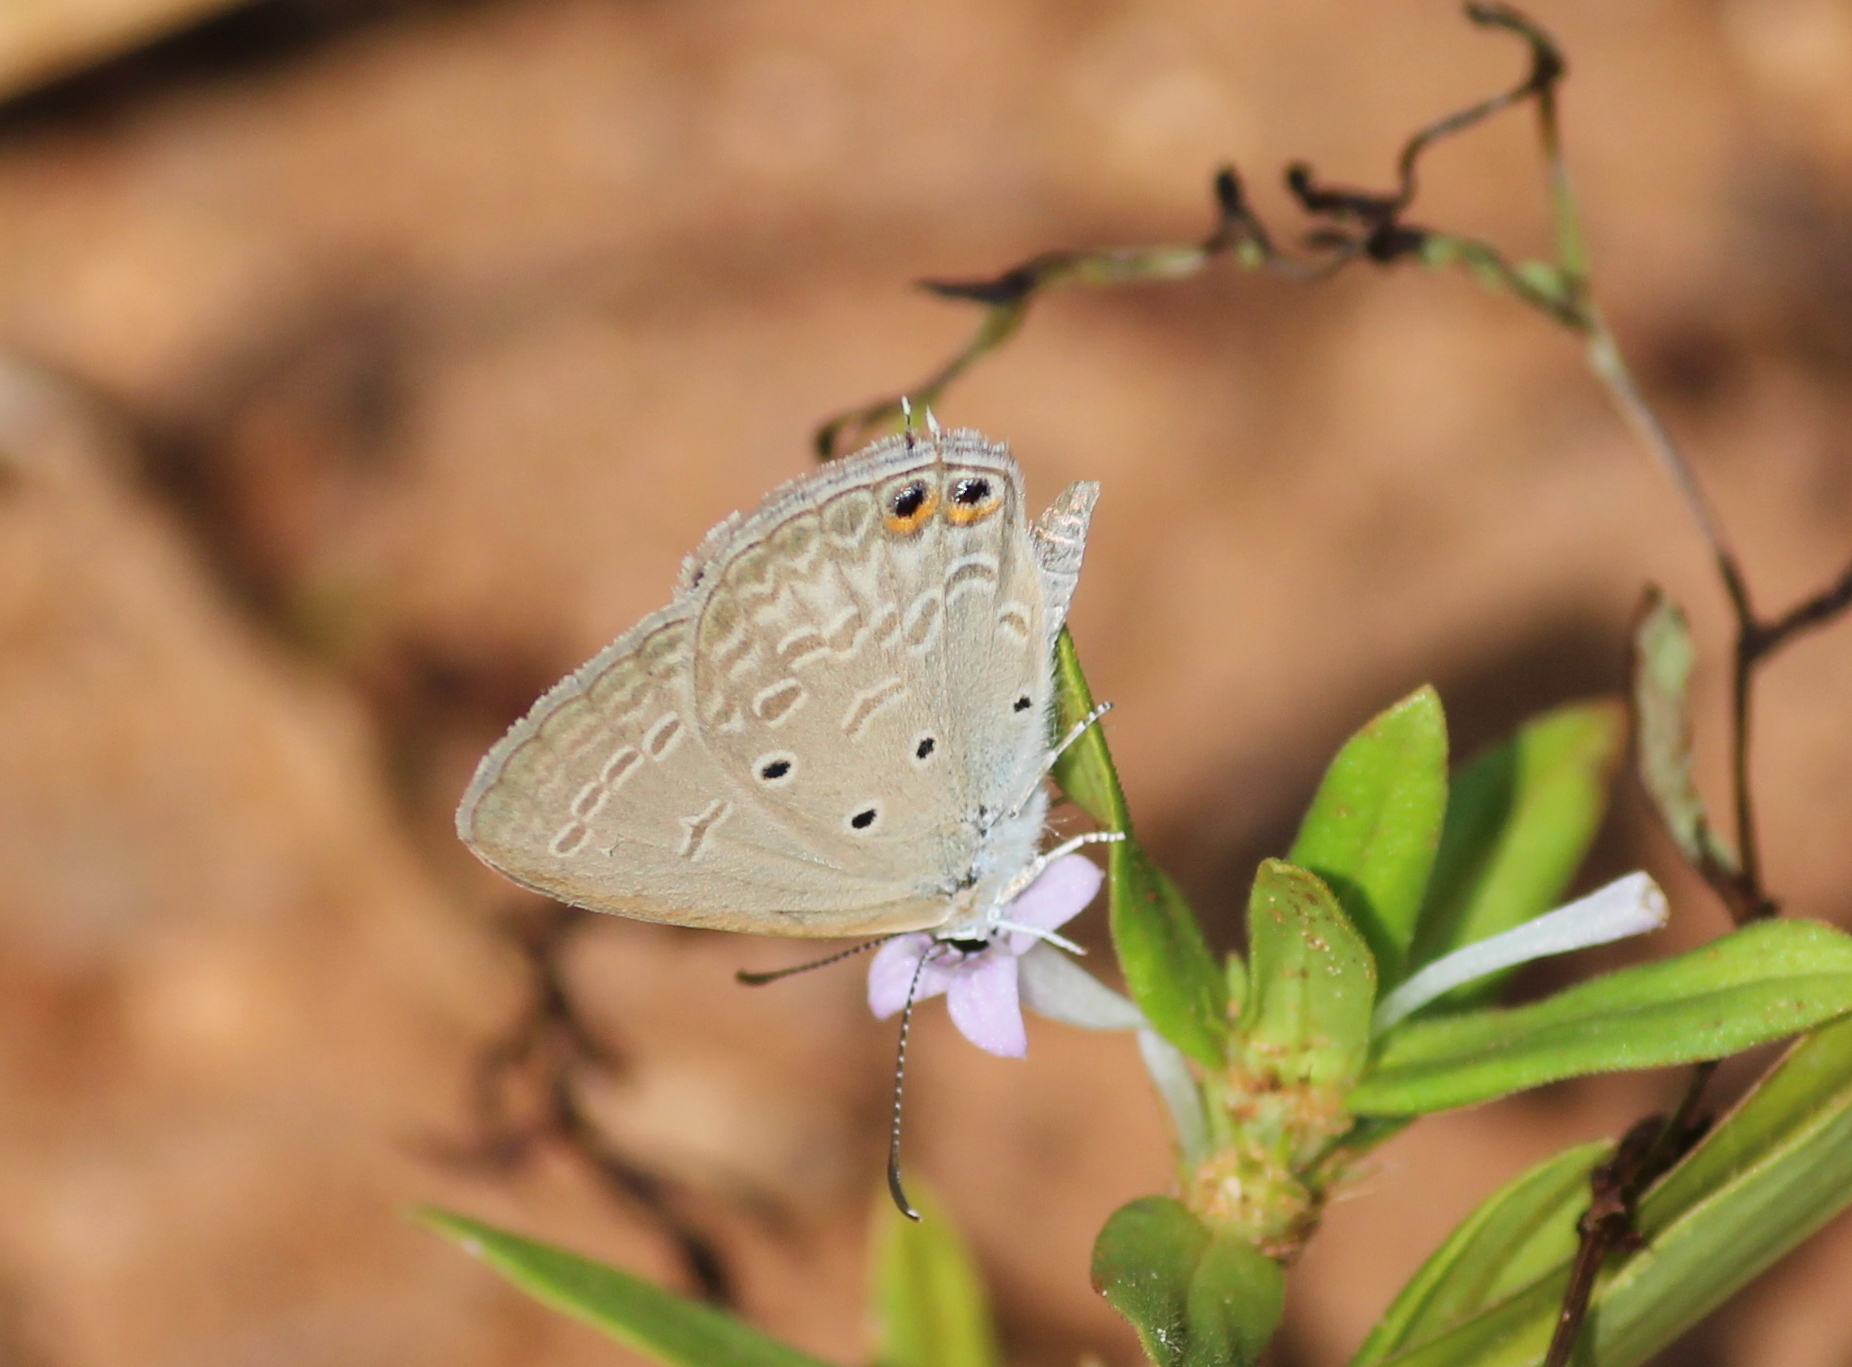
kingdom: Animalia
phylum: Arthropoda
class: Insecta
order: Lepidoptera
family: Lycaenidae
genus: Euchrysops
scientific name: Euchrysops cnejus
